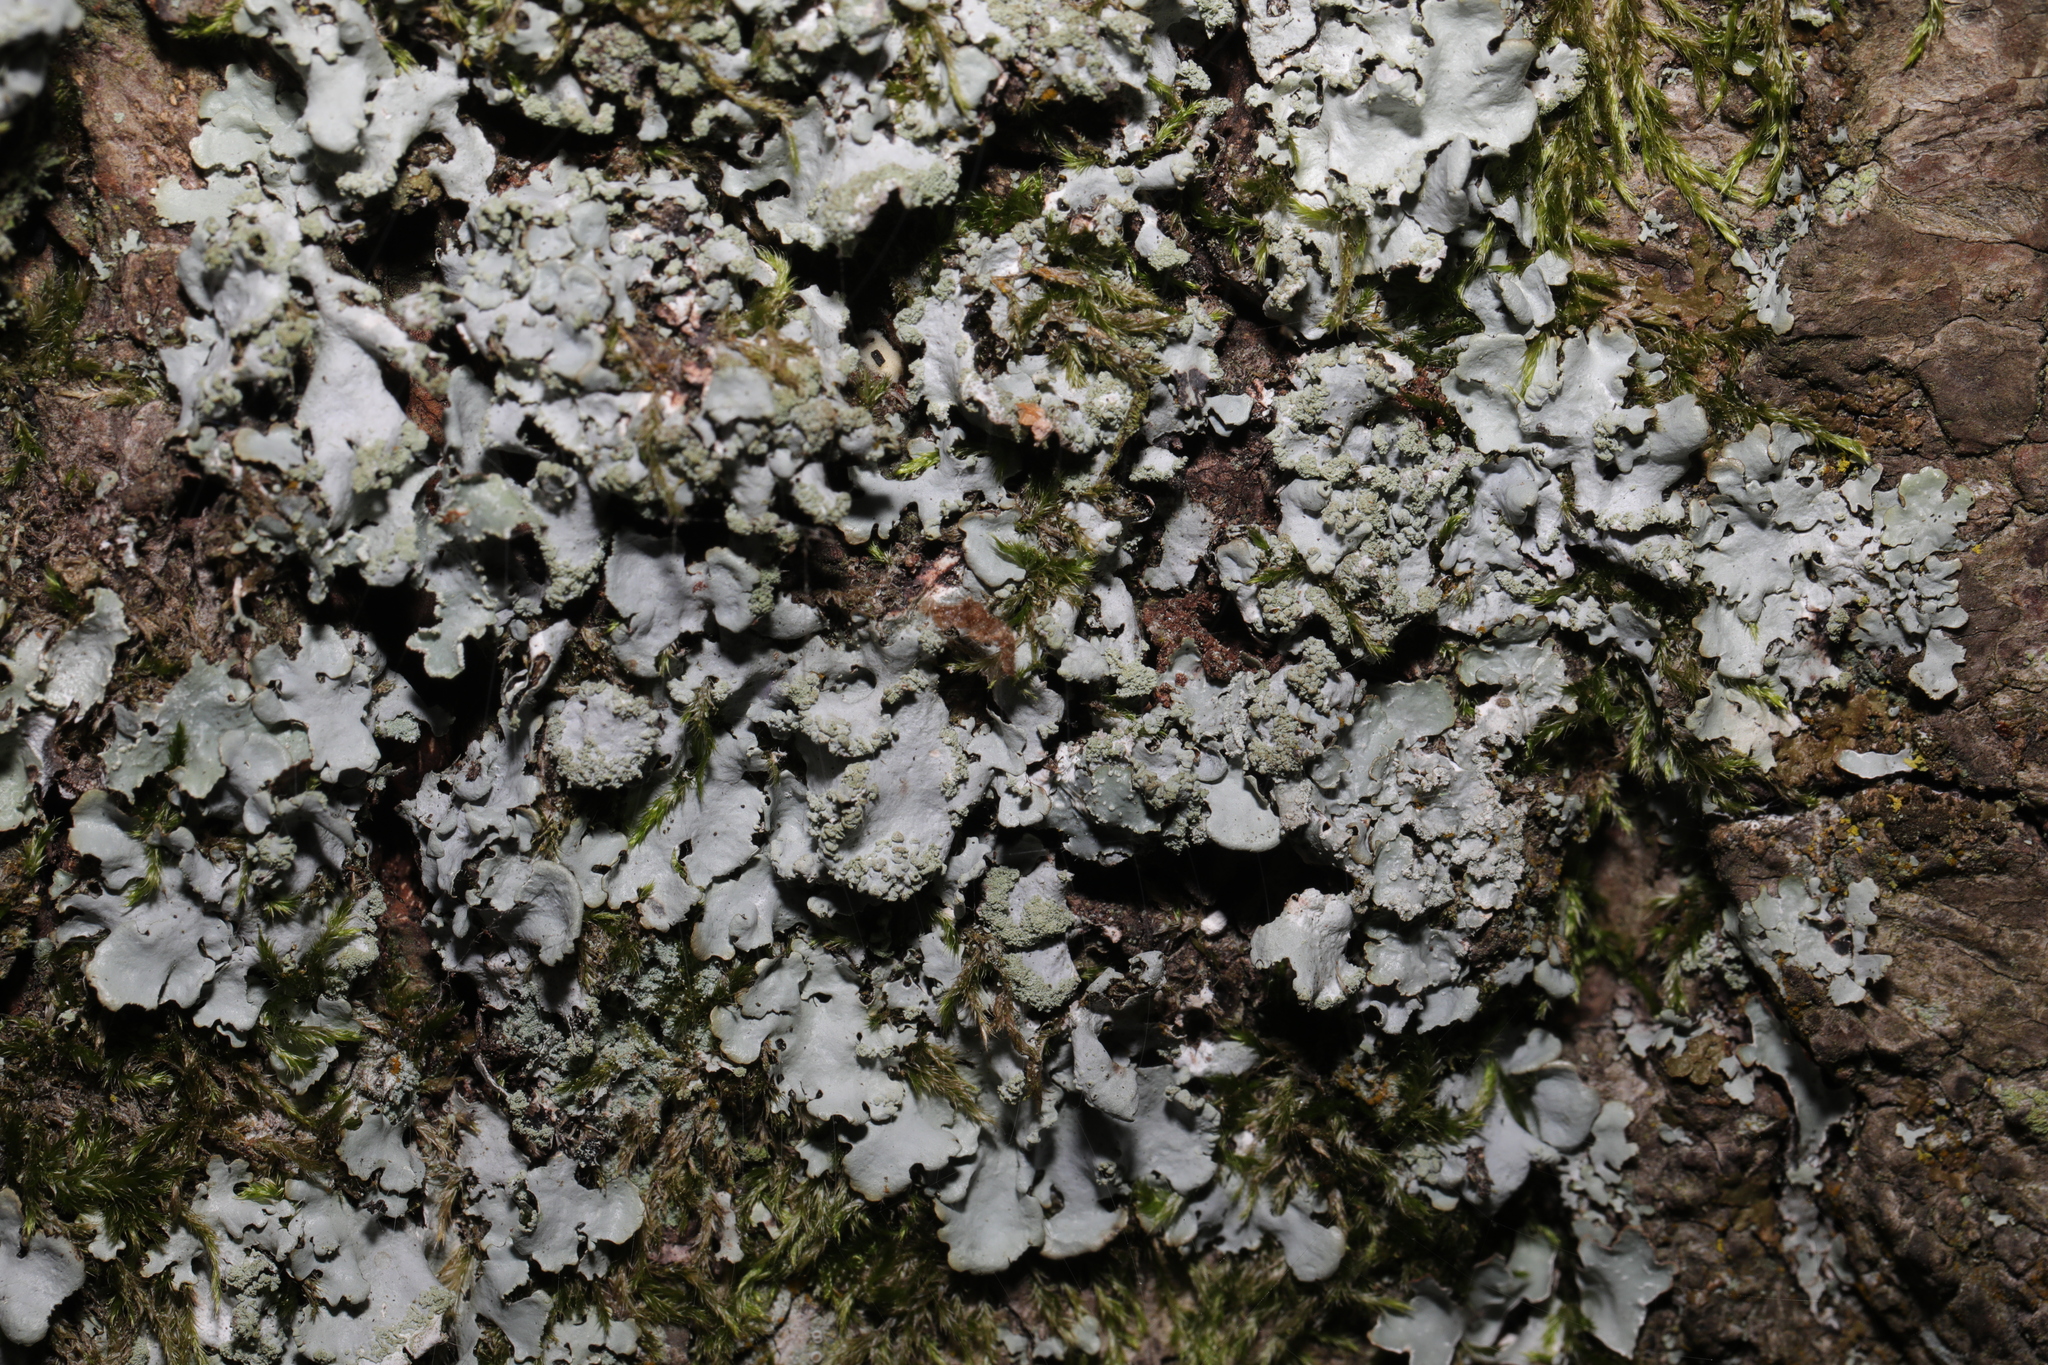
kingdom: Fungi
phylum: Ascomycota
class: Lecanoromycetes
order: Lecanorales
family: Parmeliaceae
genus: Hypotrachyna
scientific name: Hypotrachyna afrorevoluta
